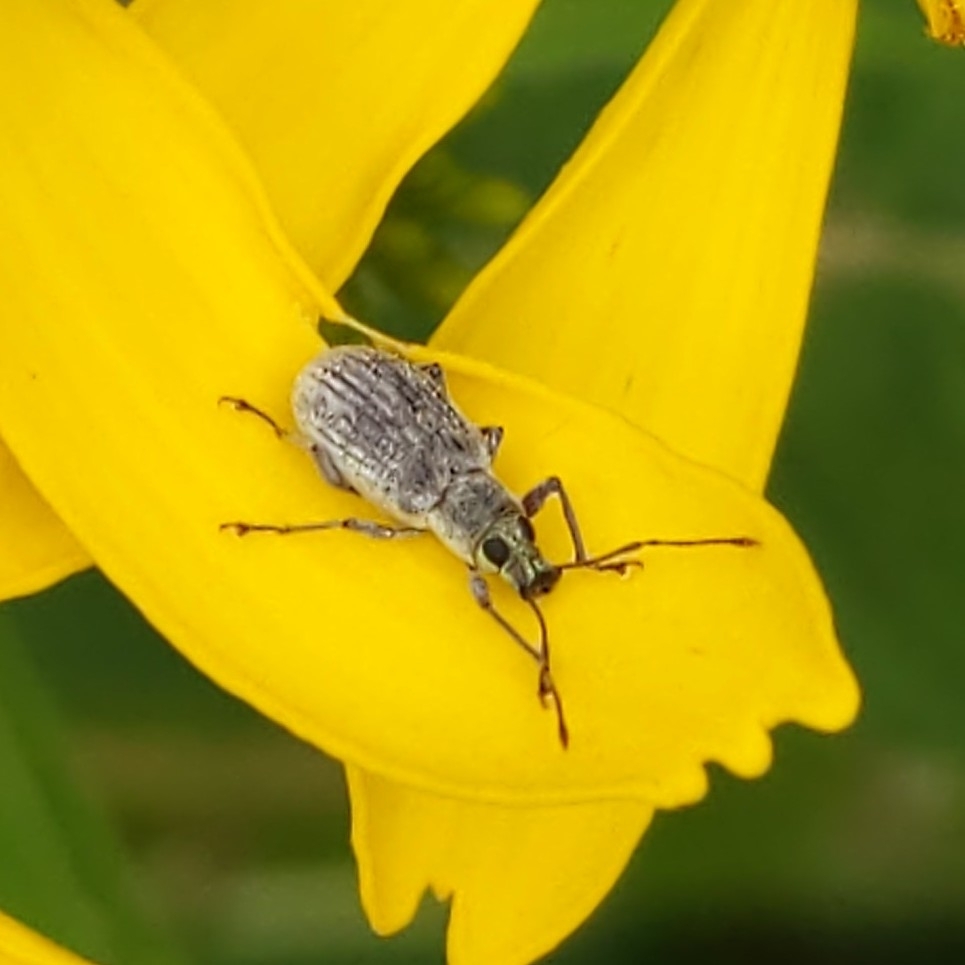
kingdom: Animalia
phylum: Arthropoda
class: Insecta
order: Coleoptera
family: Curculionidae
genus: Cyrtepistomus
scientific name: Cyrtepistomus castaneus
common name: Weevil
